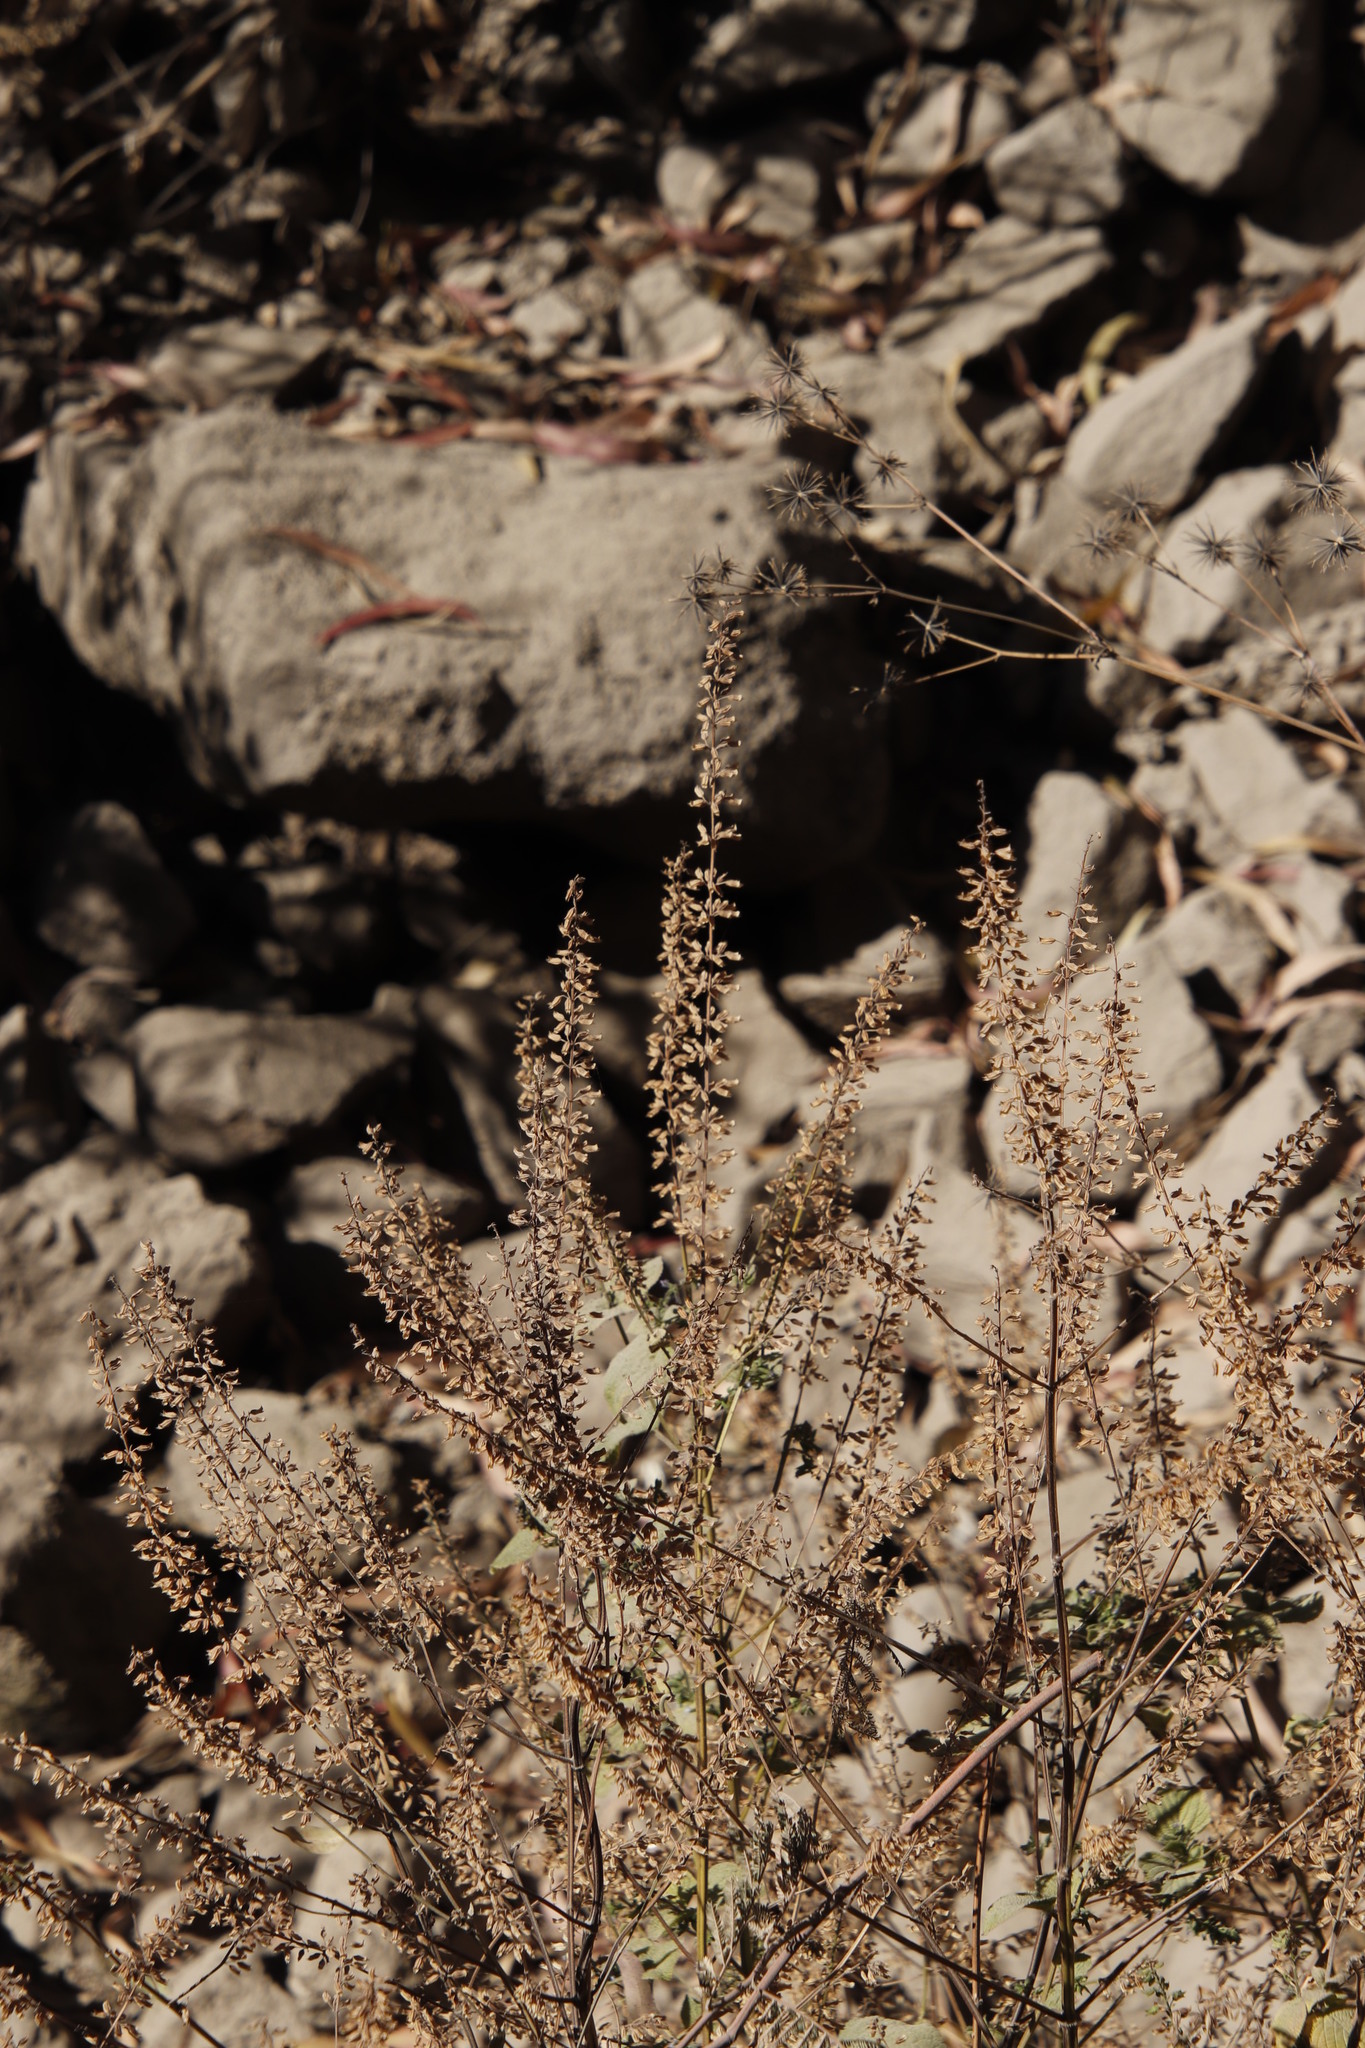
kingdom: Plantae
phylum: Tracheophyta
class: Magnoliopsida
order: Lamiales
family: Lamiaceae
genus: Salvia
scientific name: Salvia tiliifolia
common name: Lindenleaf sage
